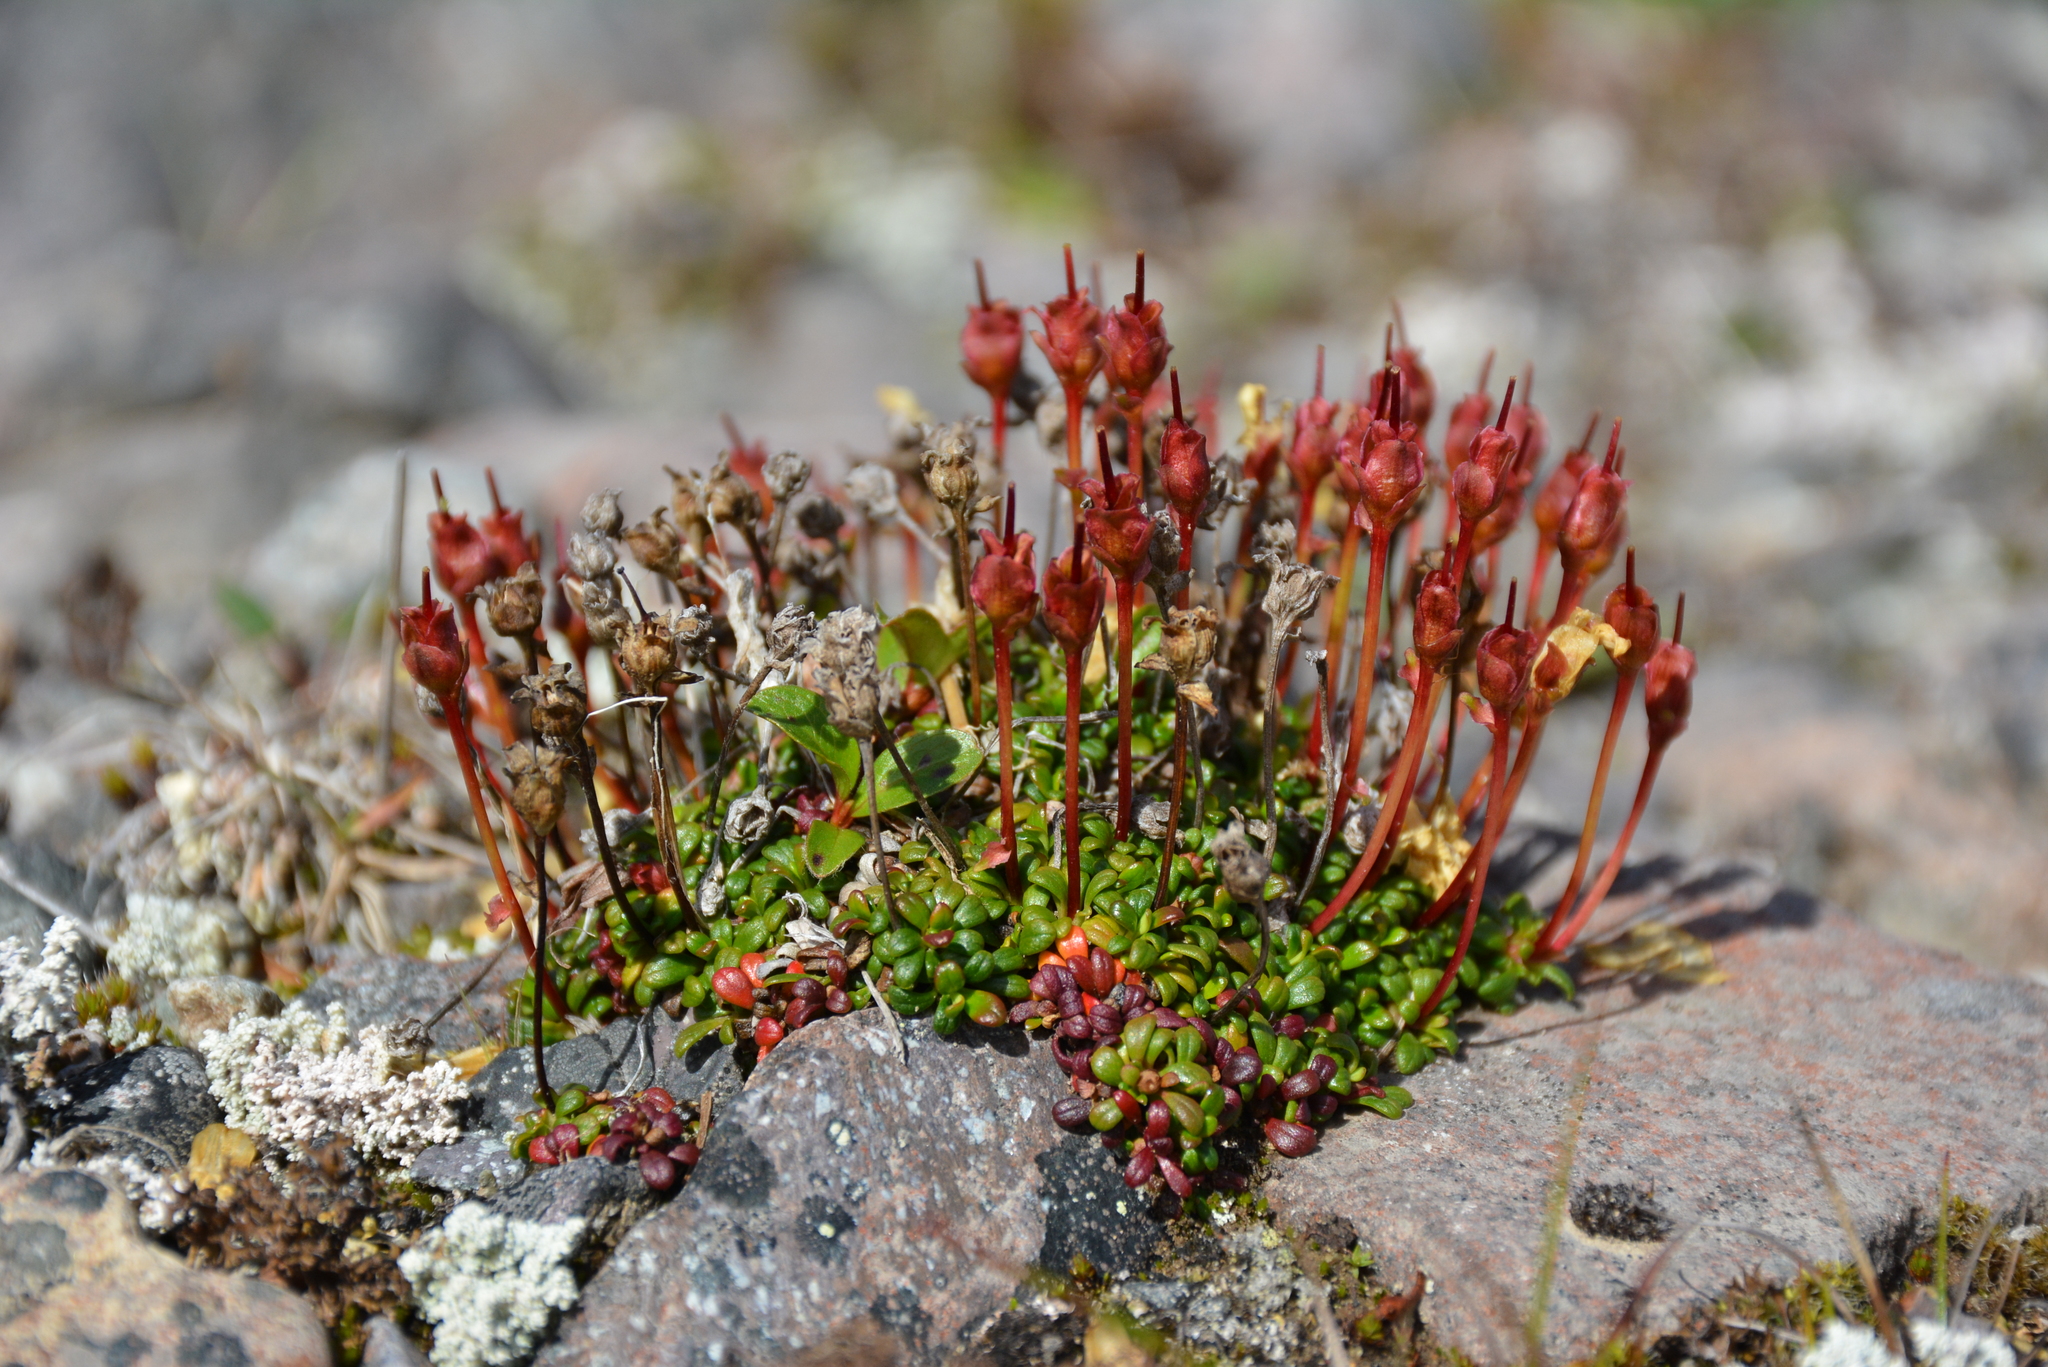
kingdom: Plantae
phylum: Tracheophyta
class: Magnoliopsida
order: Ericales
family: Diapensiaceae
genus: Diapensia
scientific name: Diapensia obovata
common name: Alaska diapensia
